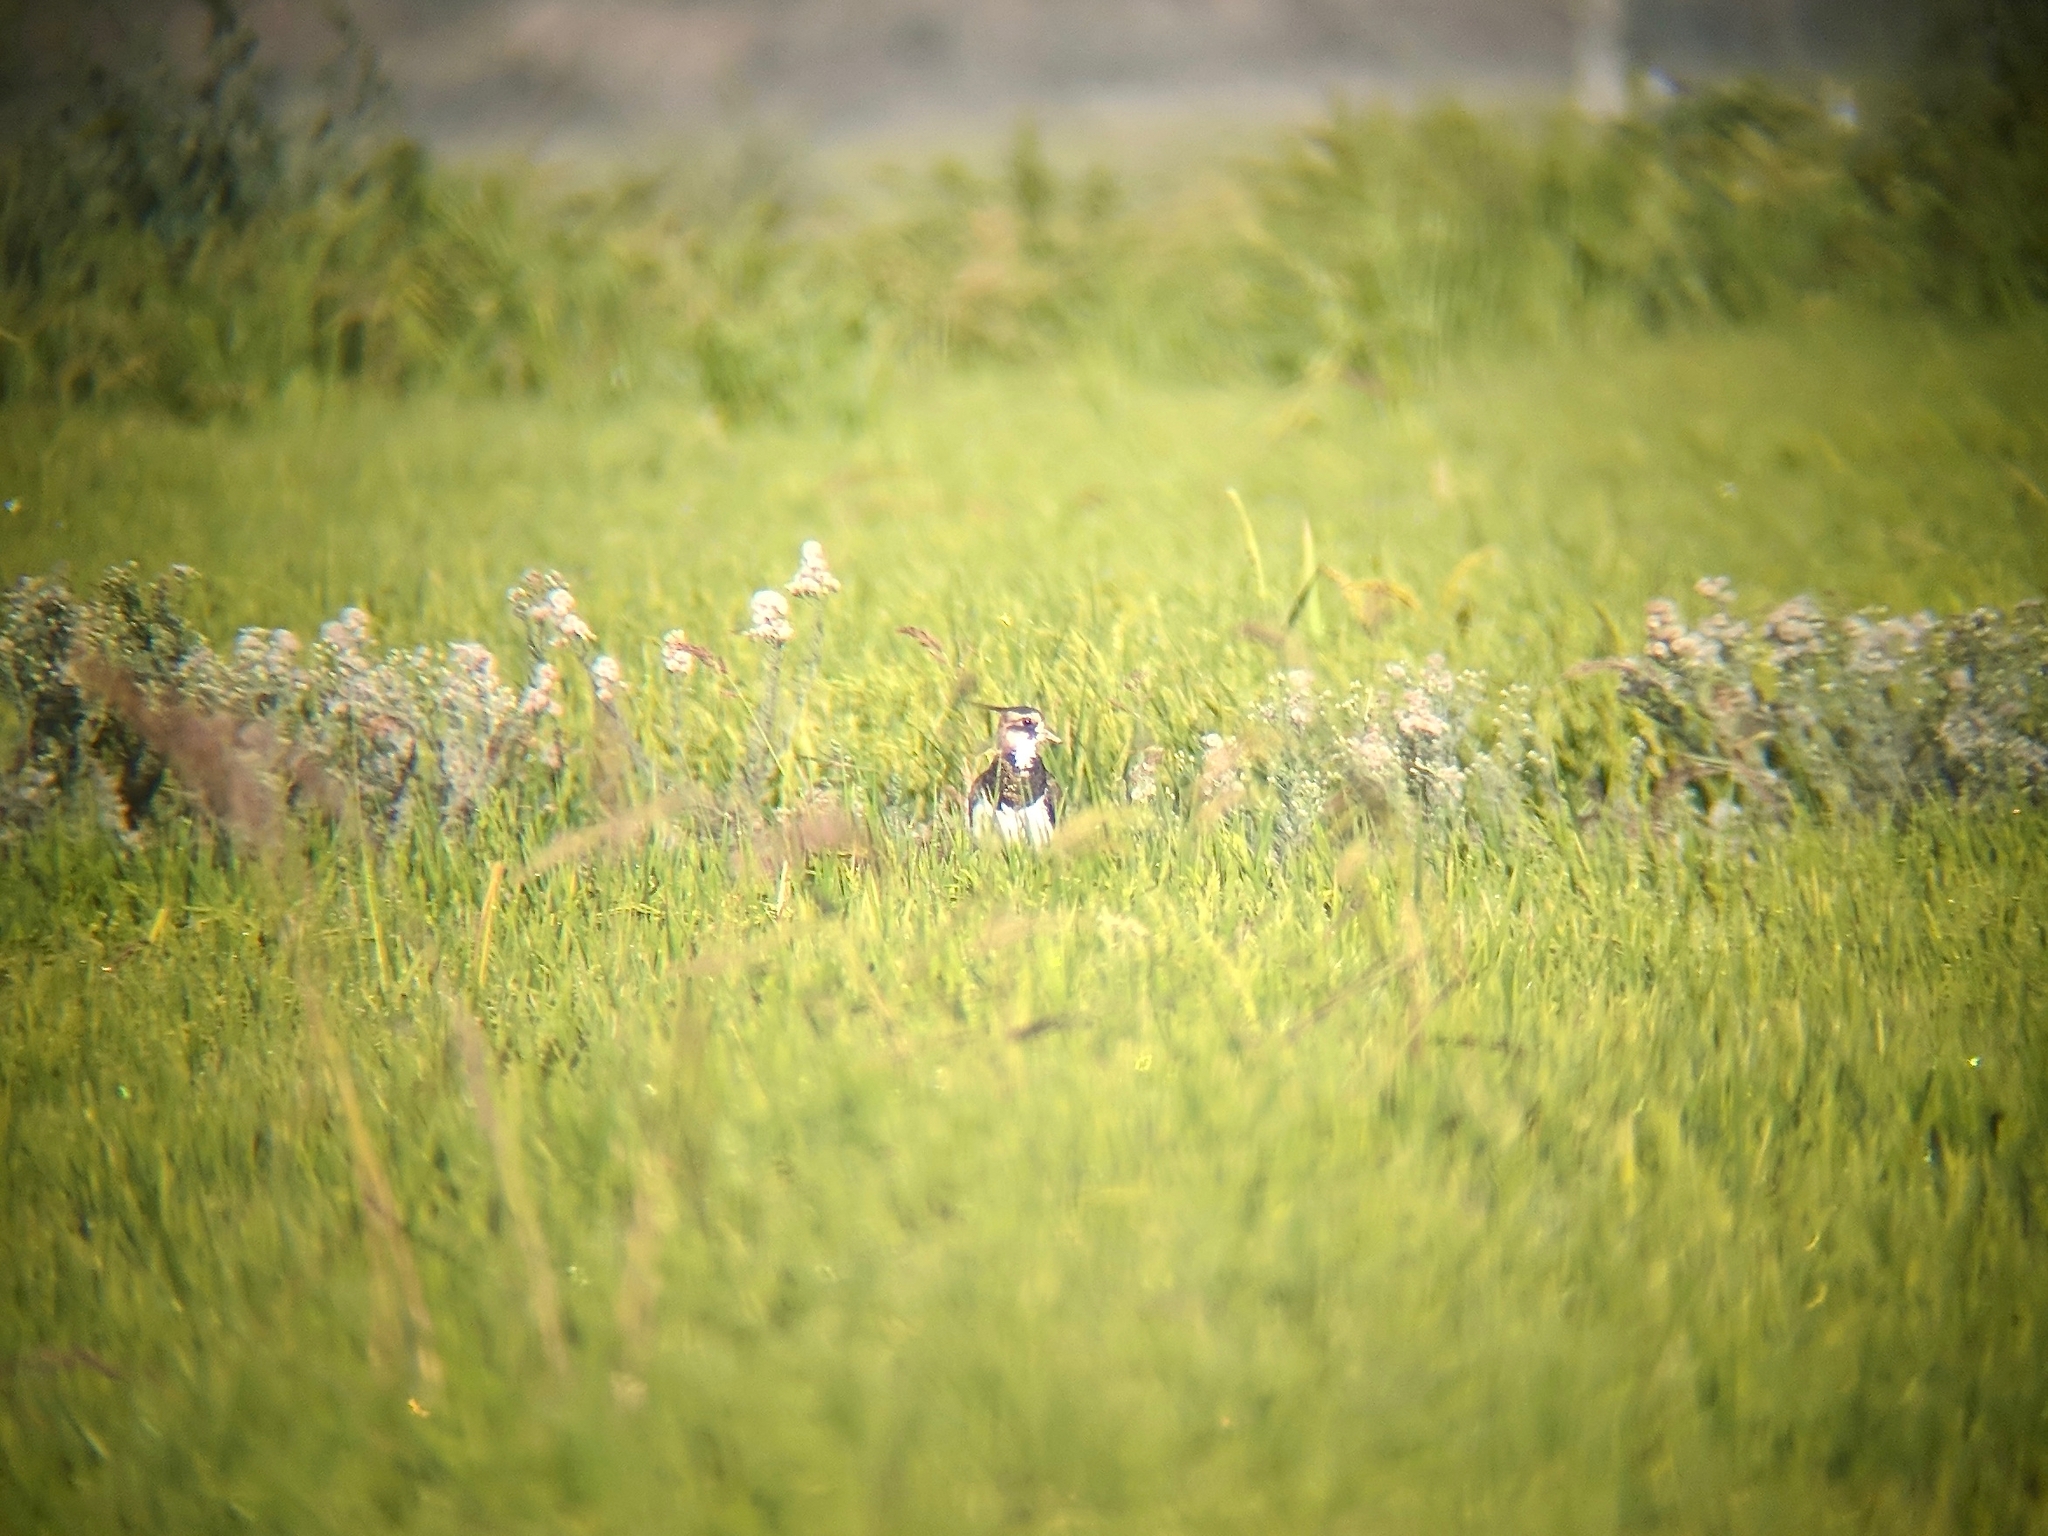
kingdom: Animalia
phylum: Chordata
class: Aves
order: Charadriiformes
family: Charadriidae
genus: Vanellus
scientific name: Vanellus vanellus
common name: Northern lapwing
